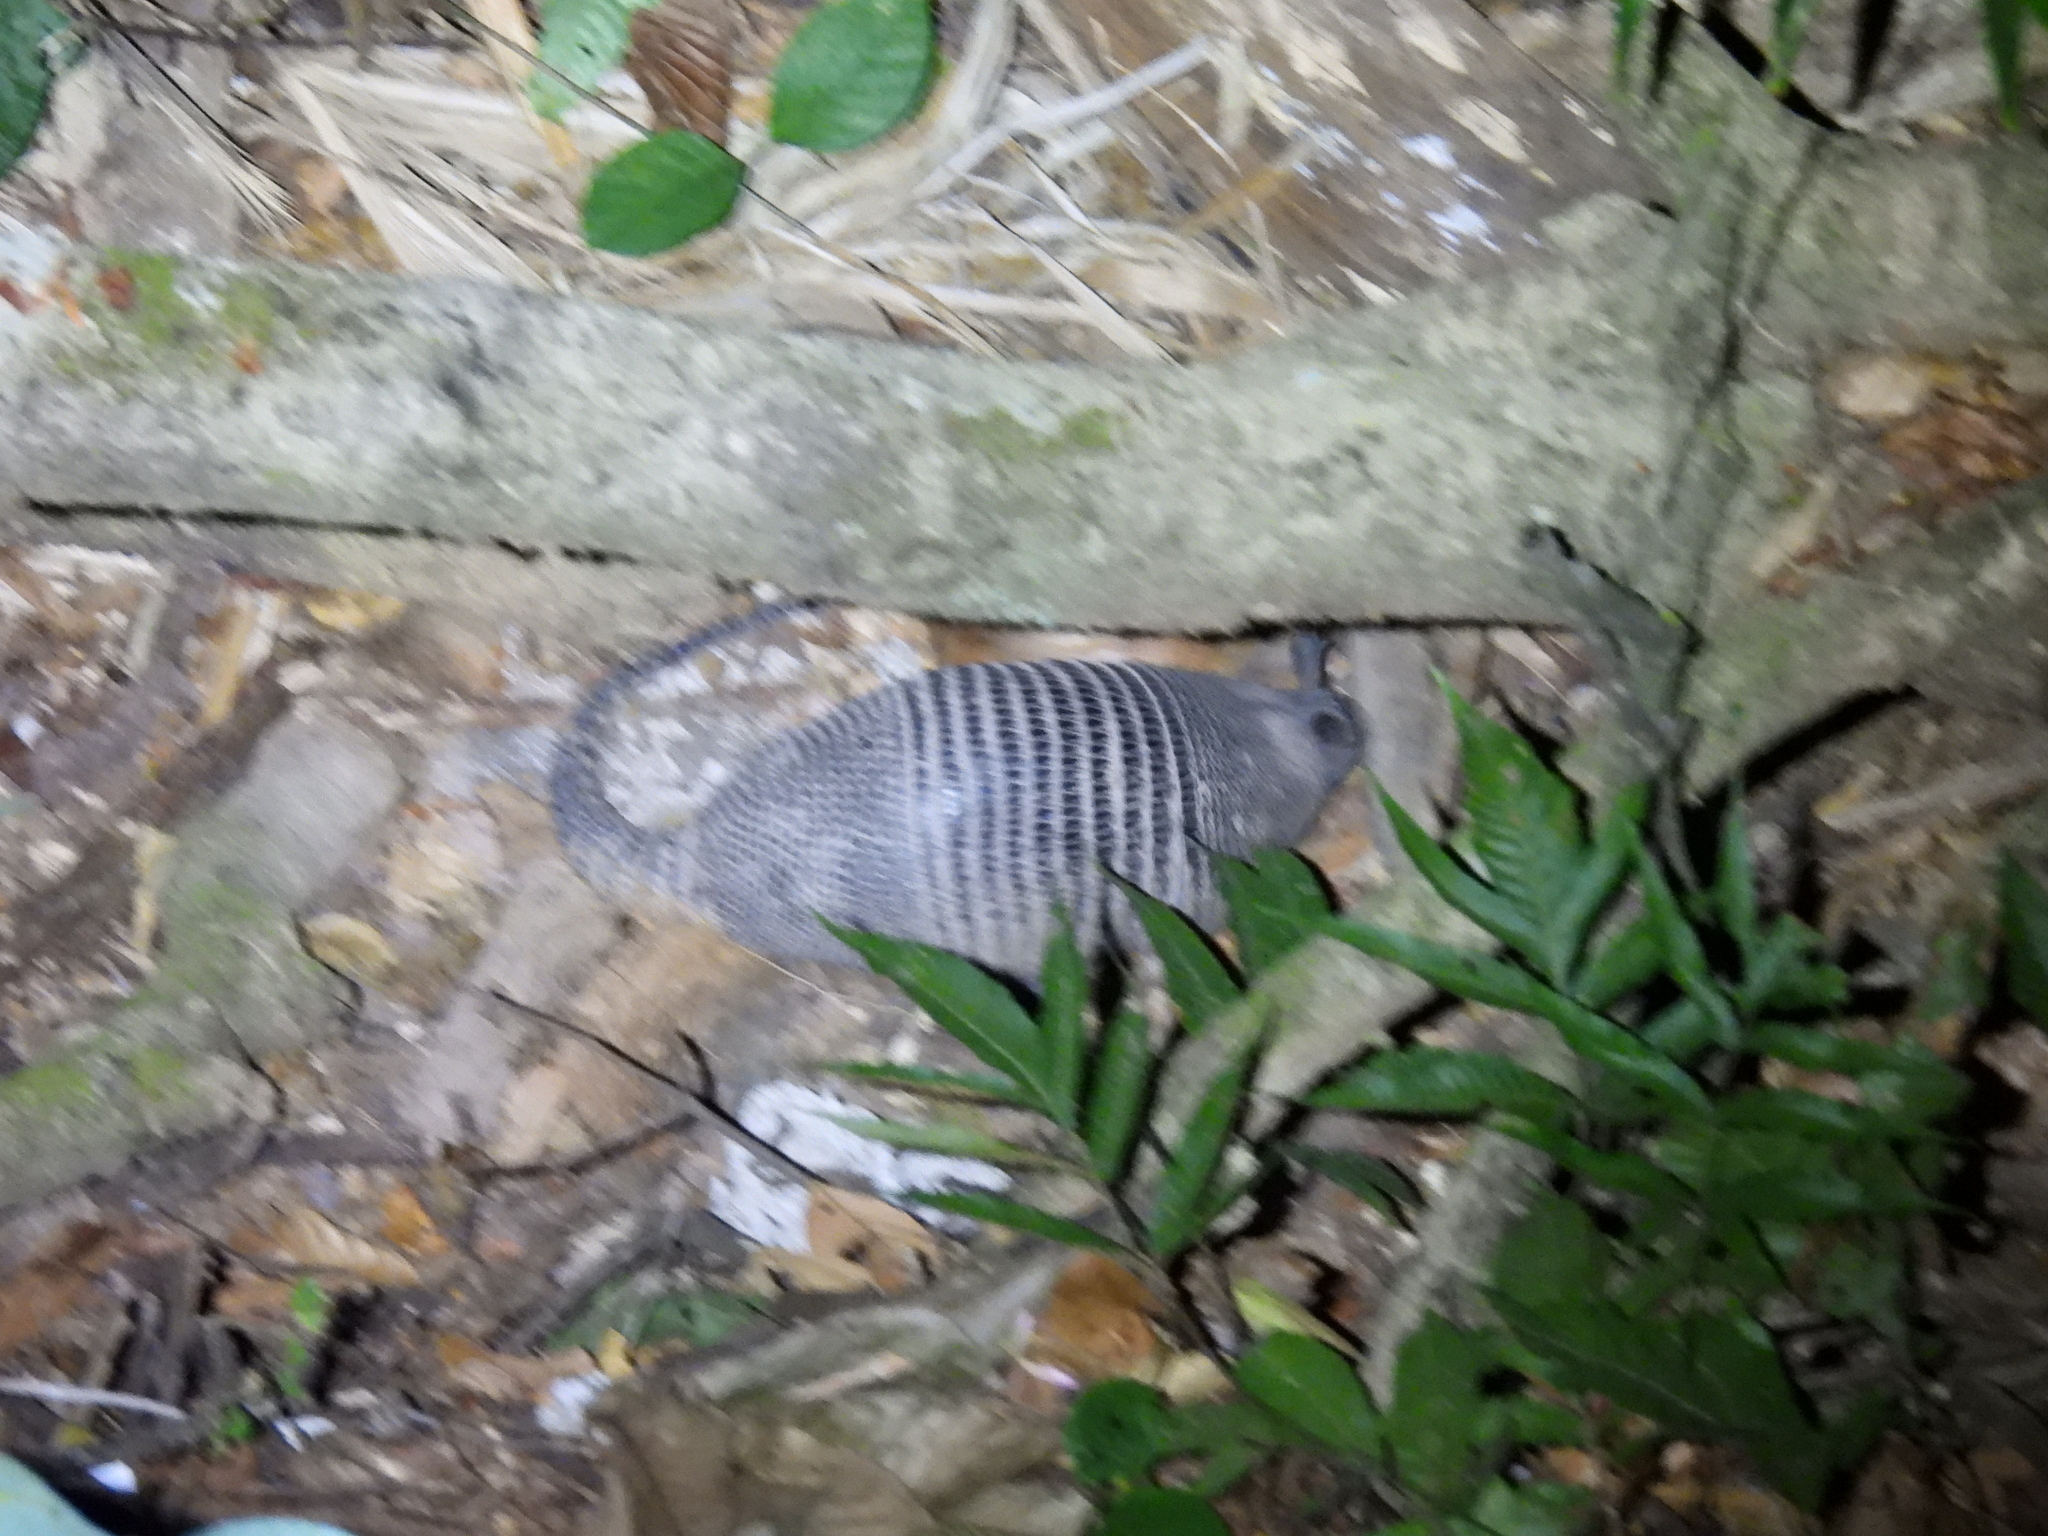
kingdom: Animalia
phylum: Chordata
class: Mammalia
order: Cingulata
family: Dasypodidae
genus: Dasypus
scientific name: Dasypus novemcinctus
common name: Nine-banded armadillo
